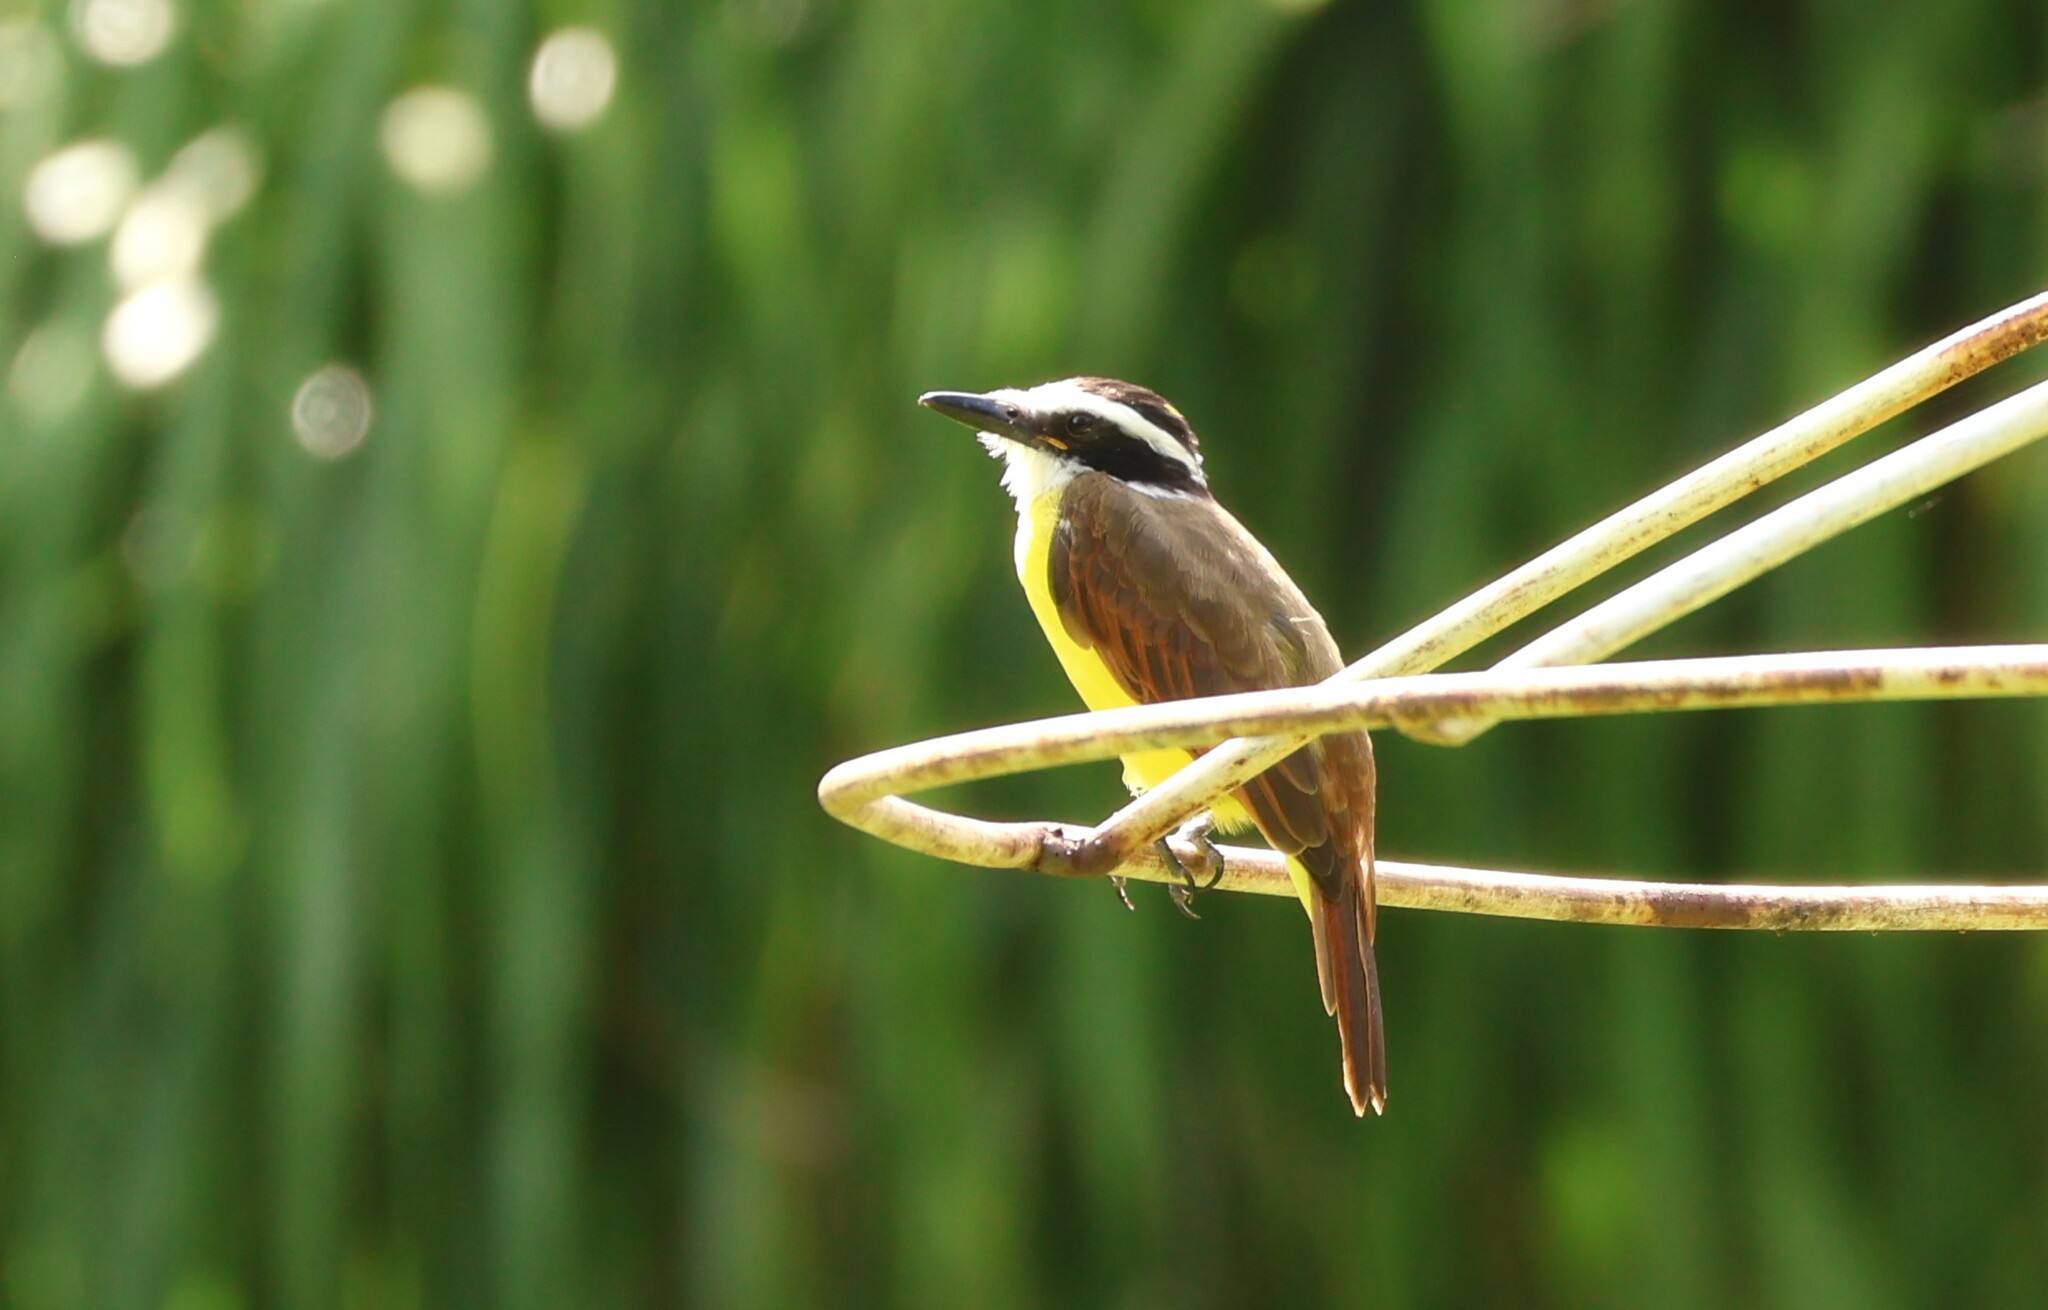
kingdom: Animalia
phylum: Chordata
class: Aves
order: Passeriformes
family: Tyrannidae
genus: Pitangus
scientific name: Pitangus sulphuratus
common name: Great kiskadee
